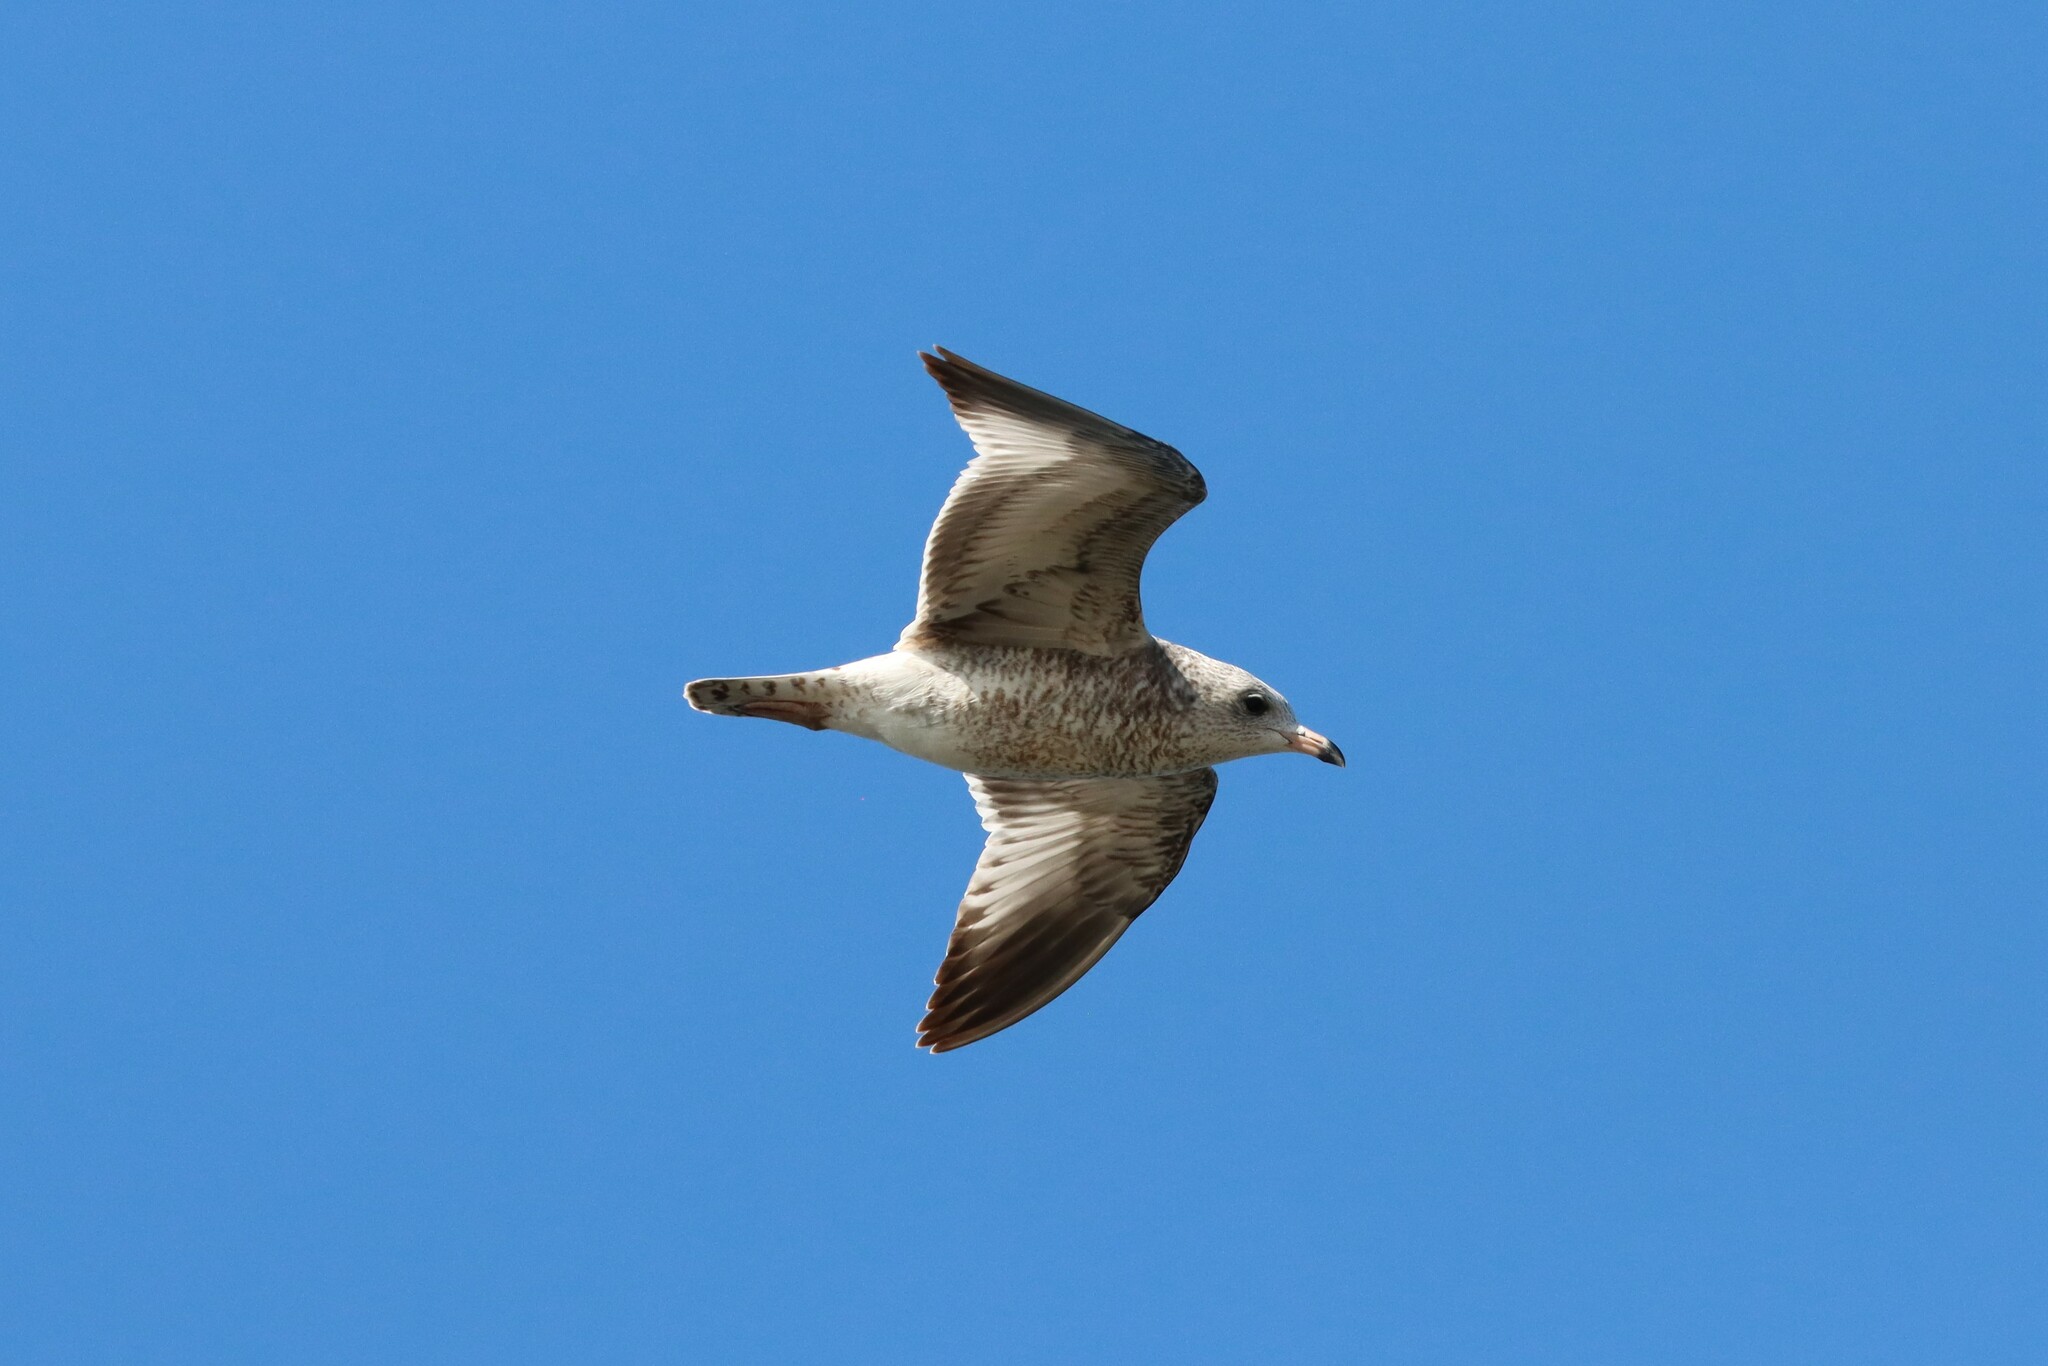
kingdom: Animalia
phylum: Chordata
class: Aves
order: Charadriiformes
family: Laridae
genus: Larus
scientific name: Larus delawarensis
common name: Ring-billed gull
